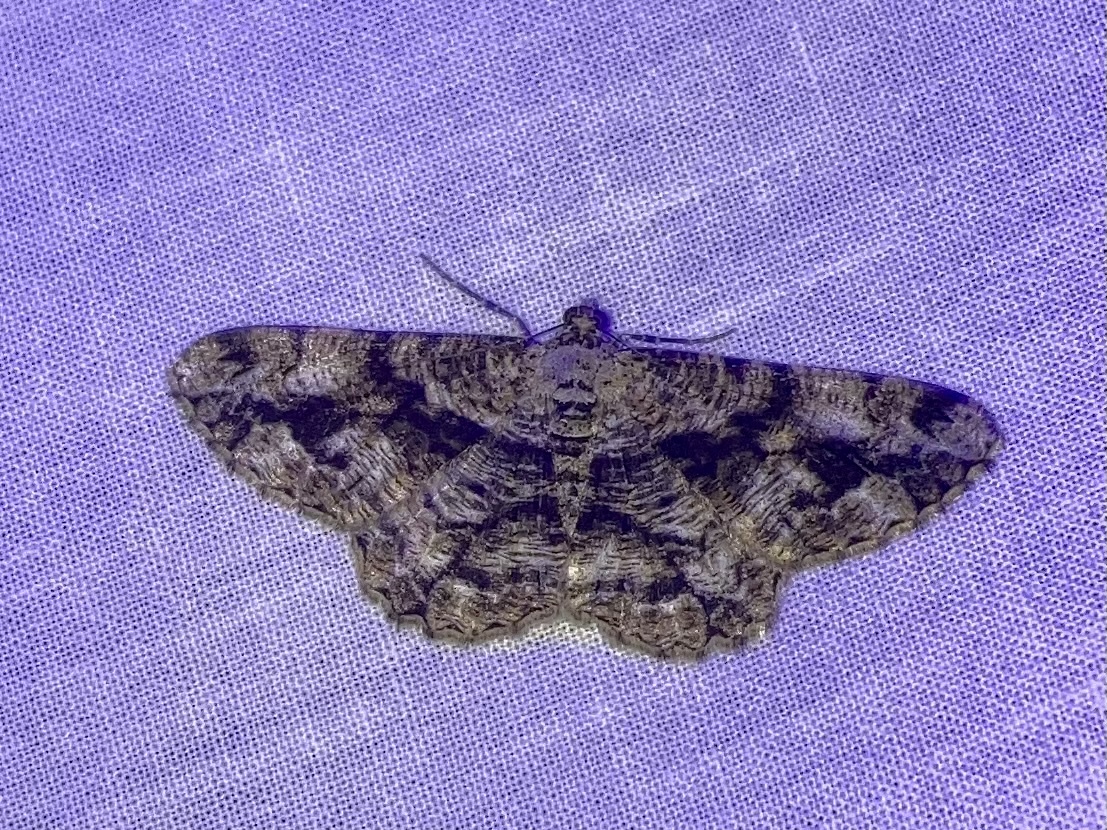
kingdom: Animalia
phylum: Arthropoda
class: Insecta
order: Lepidoptera
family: Geometridae
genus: Peribatodes
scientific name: Peribatodes umbraria
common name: Olive-tree beauty
